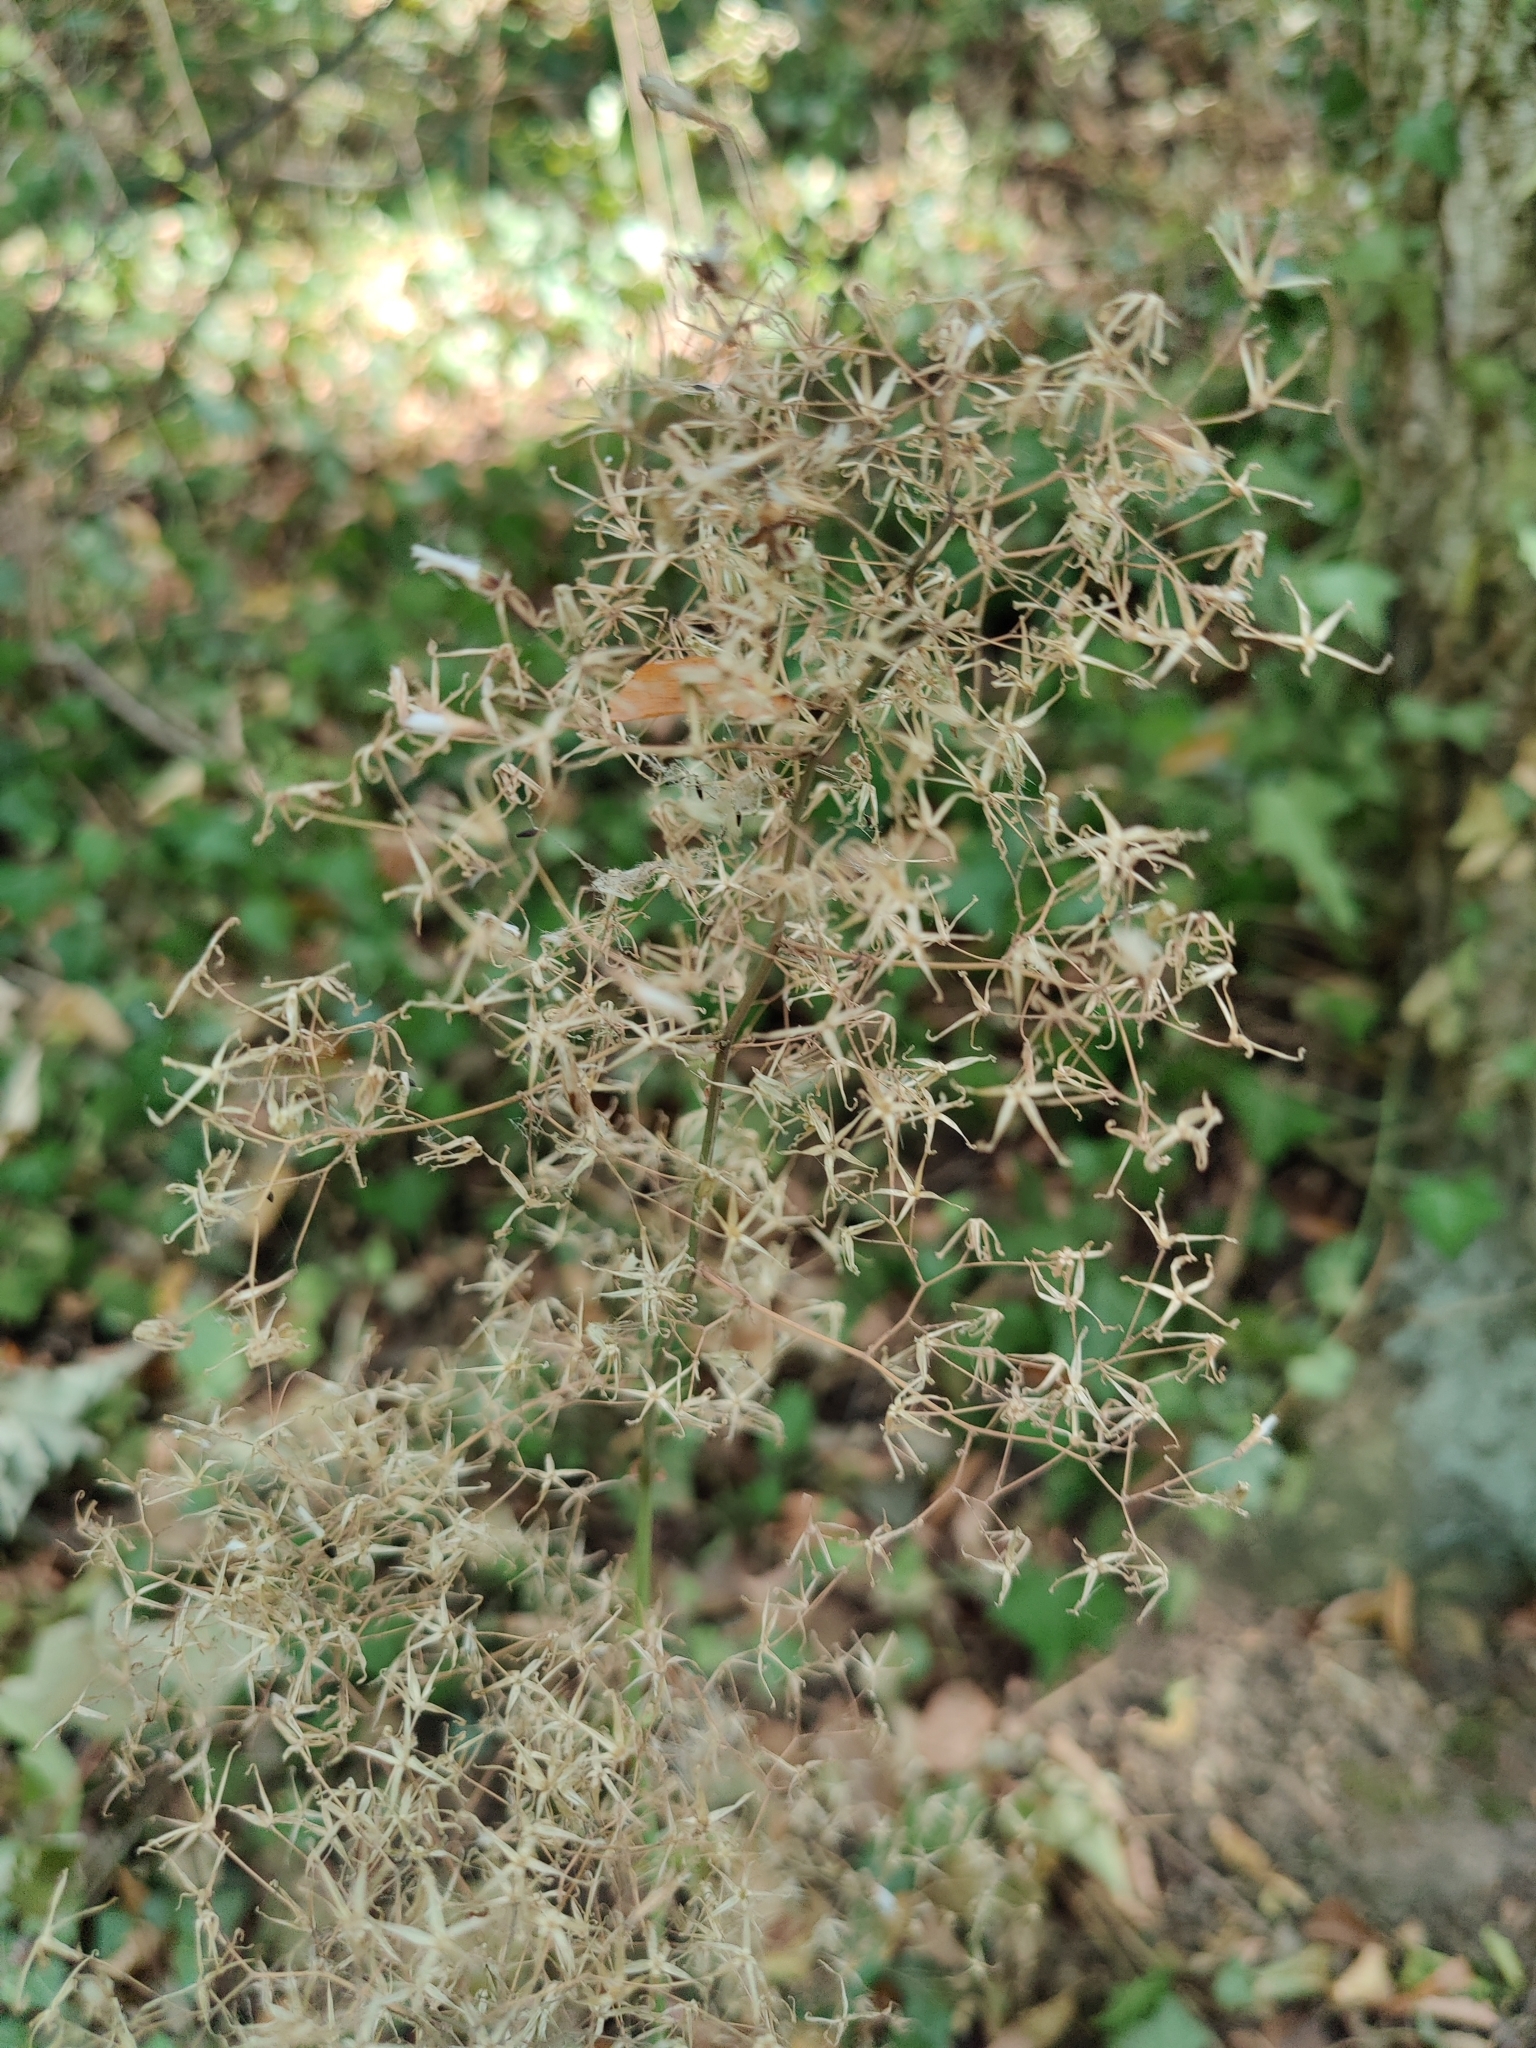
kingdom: Plantae
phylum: Tracheophyta
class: Magnoliopsida
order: Asterales
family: Asteraceae
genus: Mycelis
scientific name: Mycelis muralis
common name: Wall lettuce
